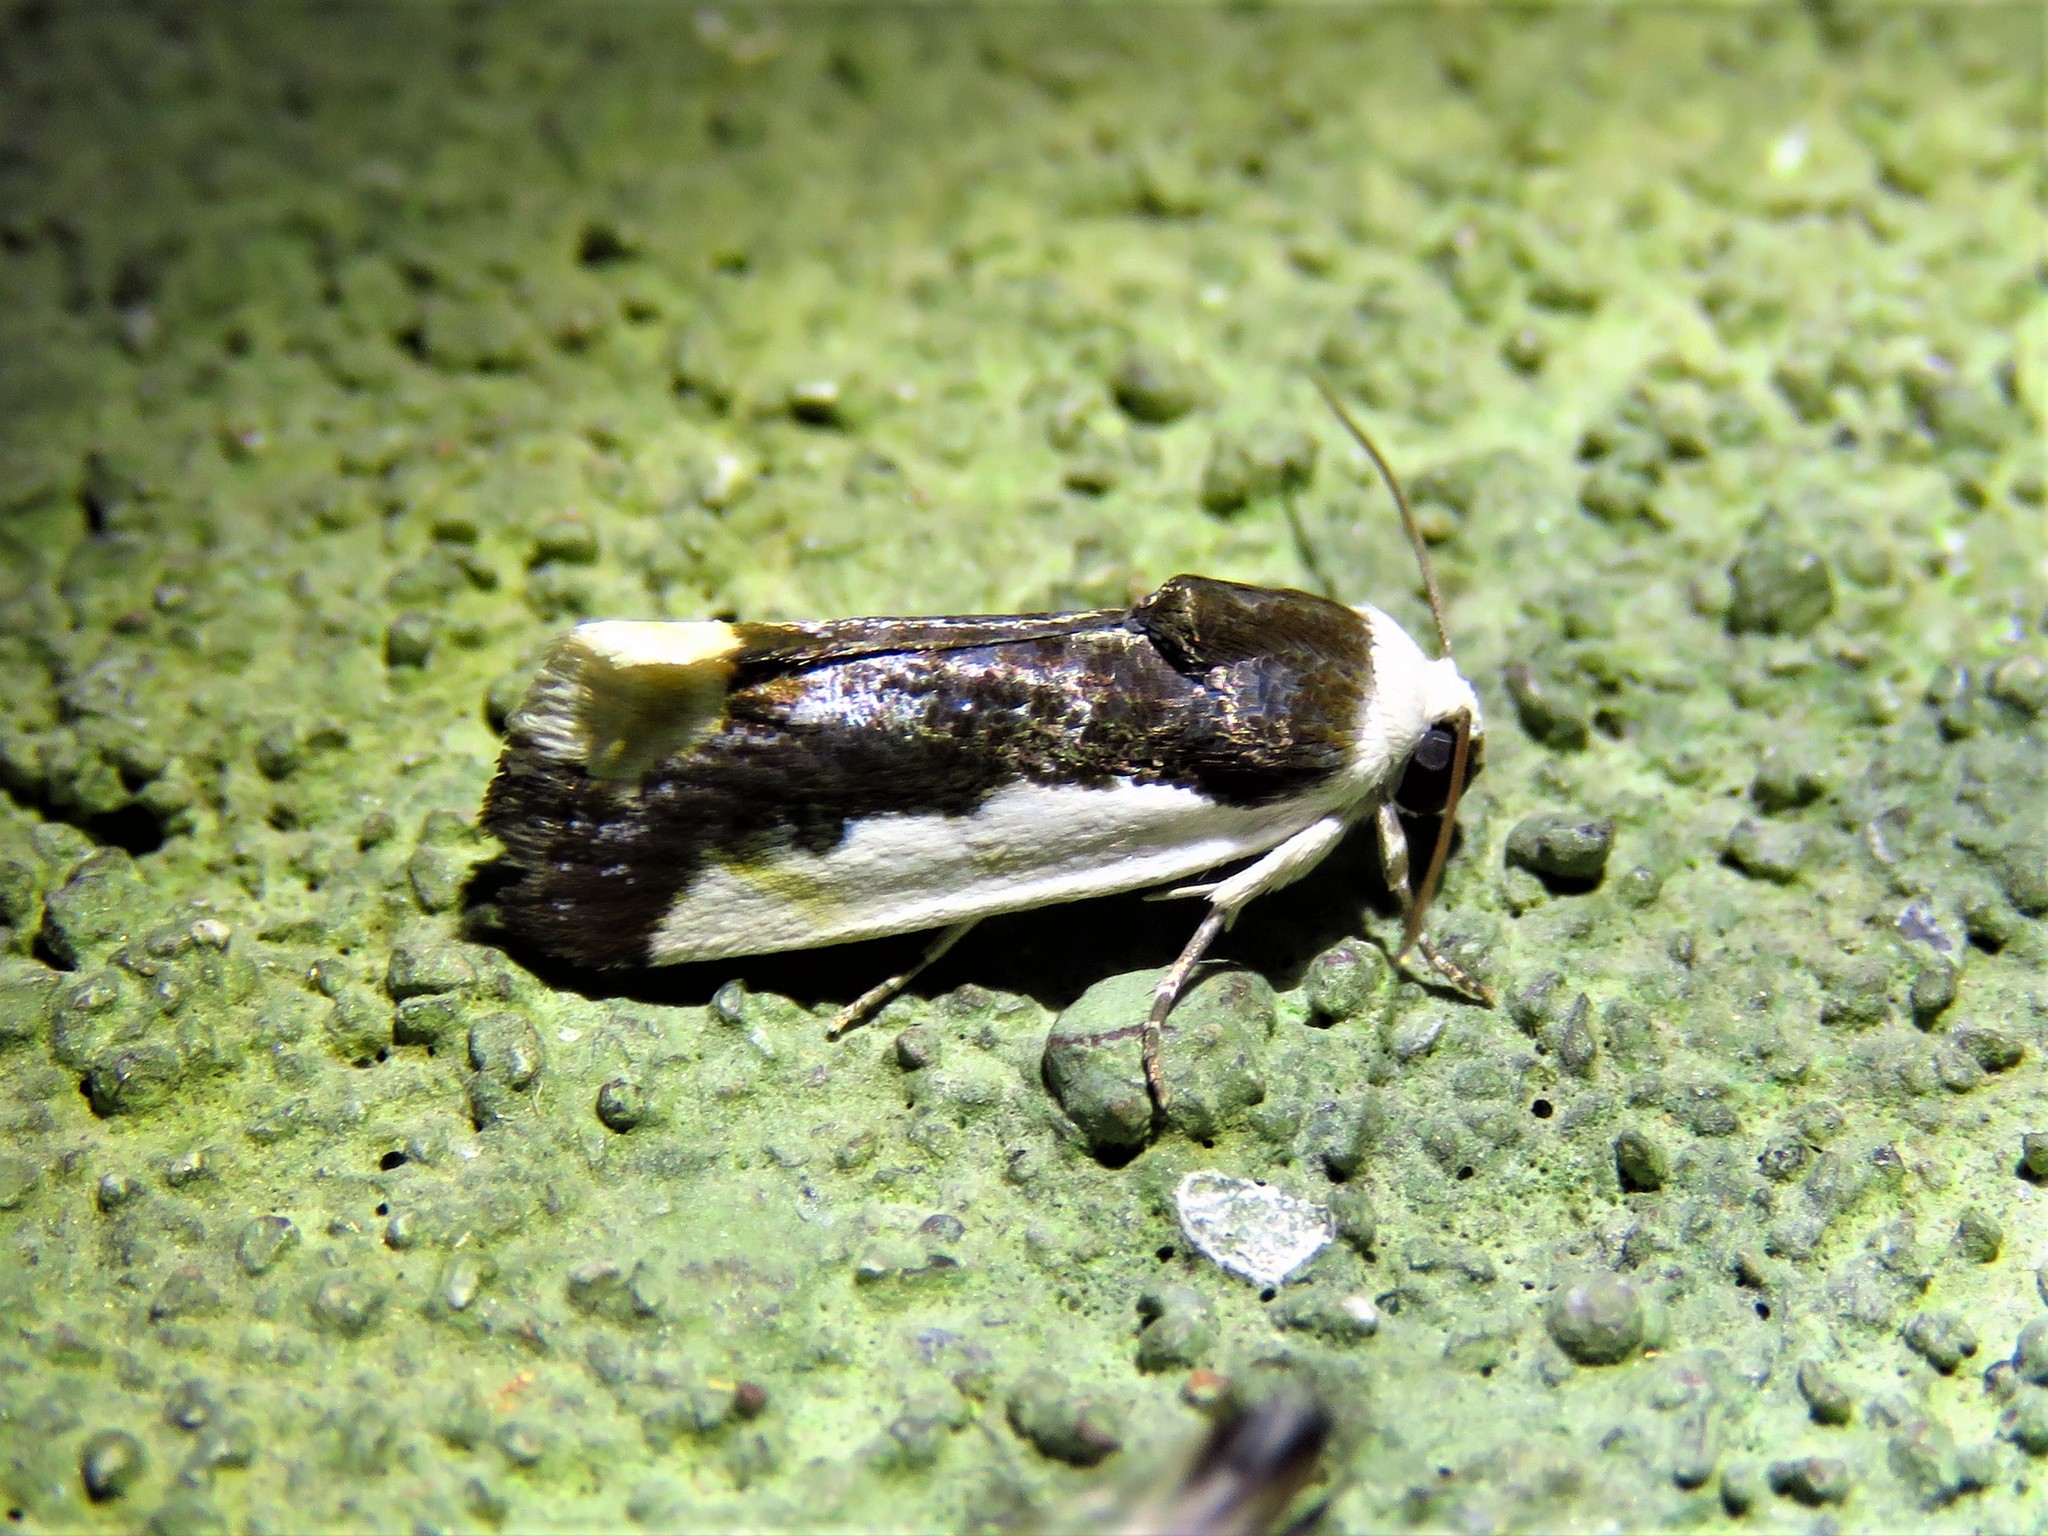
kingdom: Animalia
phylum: Arthropoda
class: Insecta
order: Lepidoptera
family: Noctuidae
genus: Acontia
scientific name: Acontia Tarache expolita
